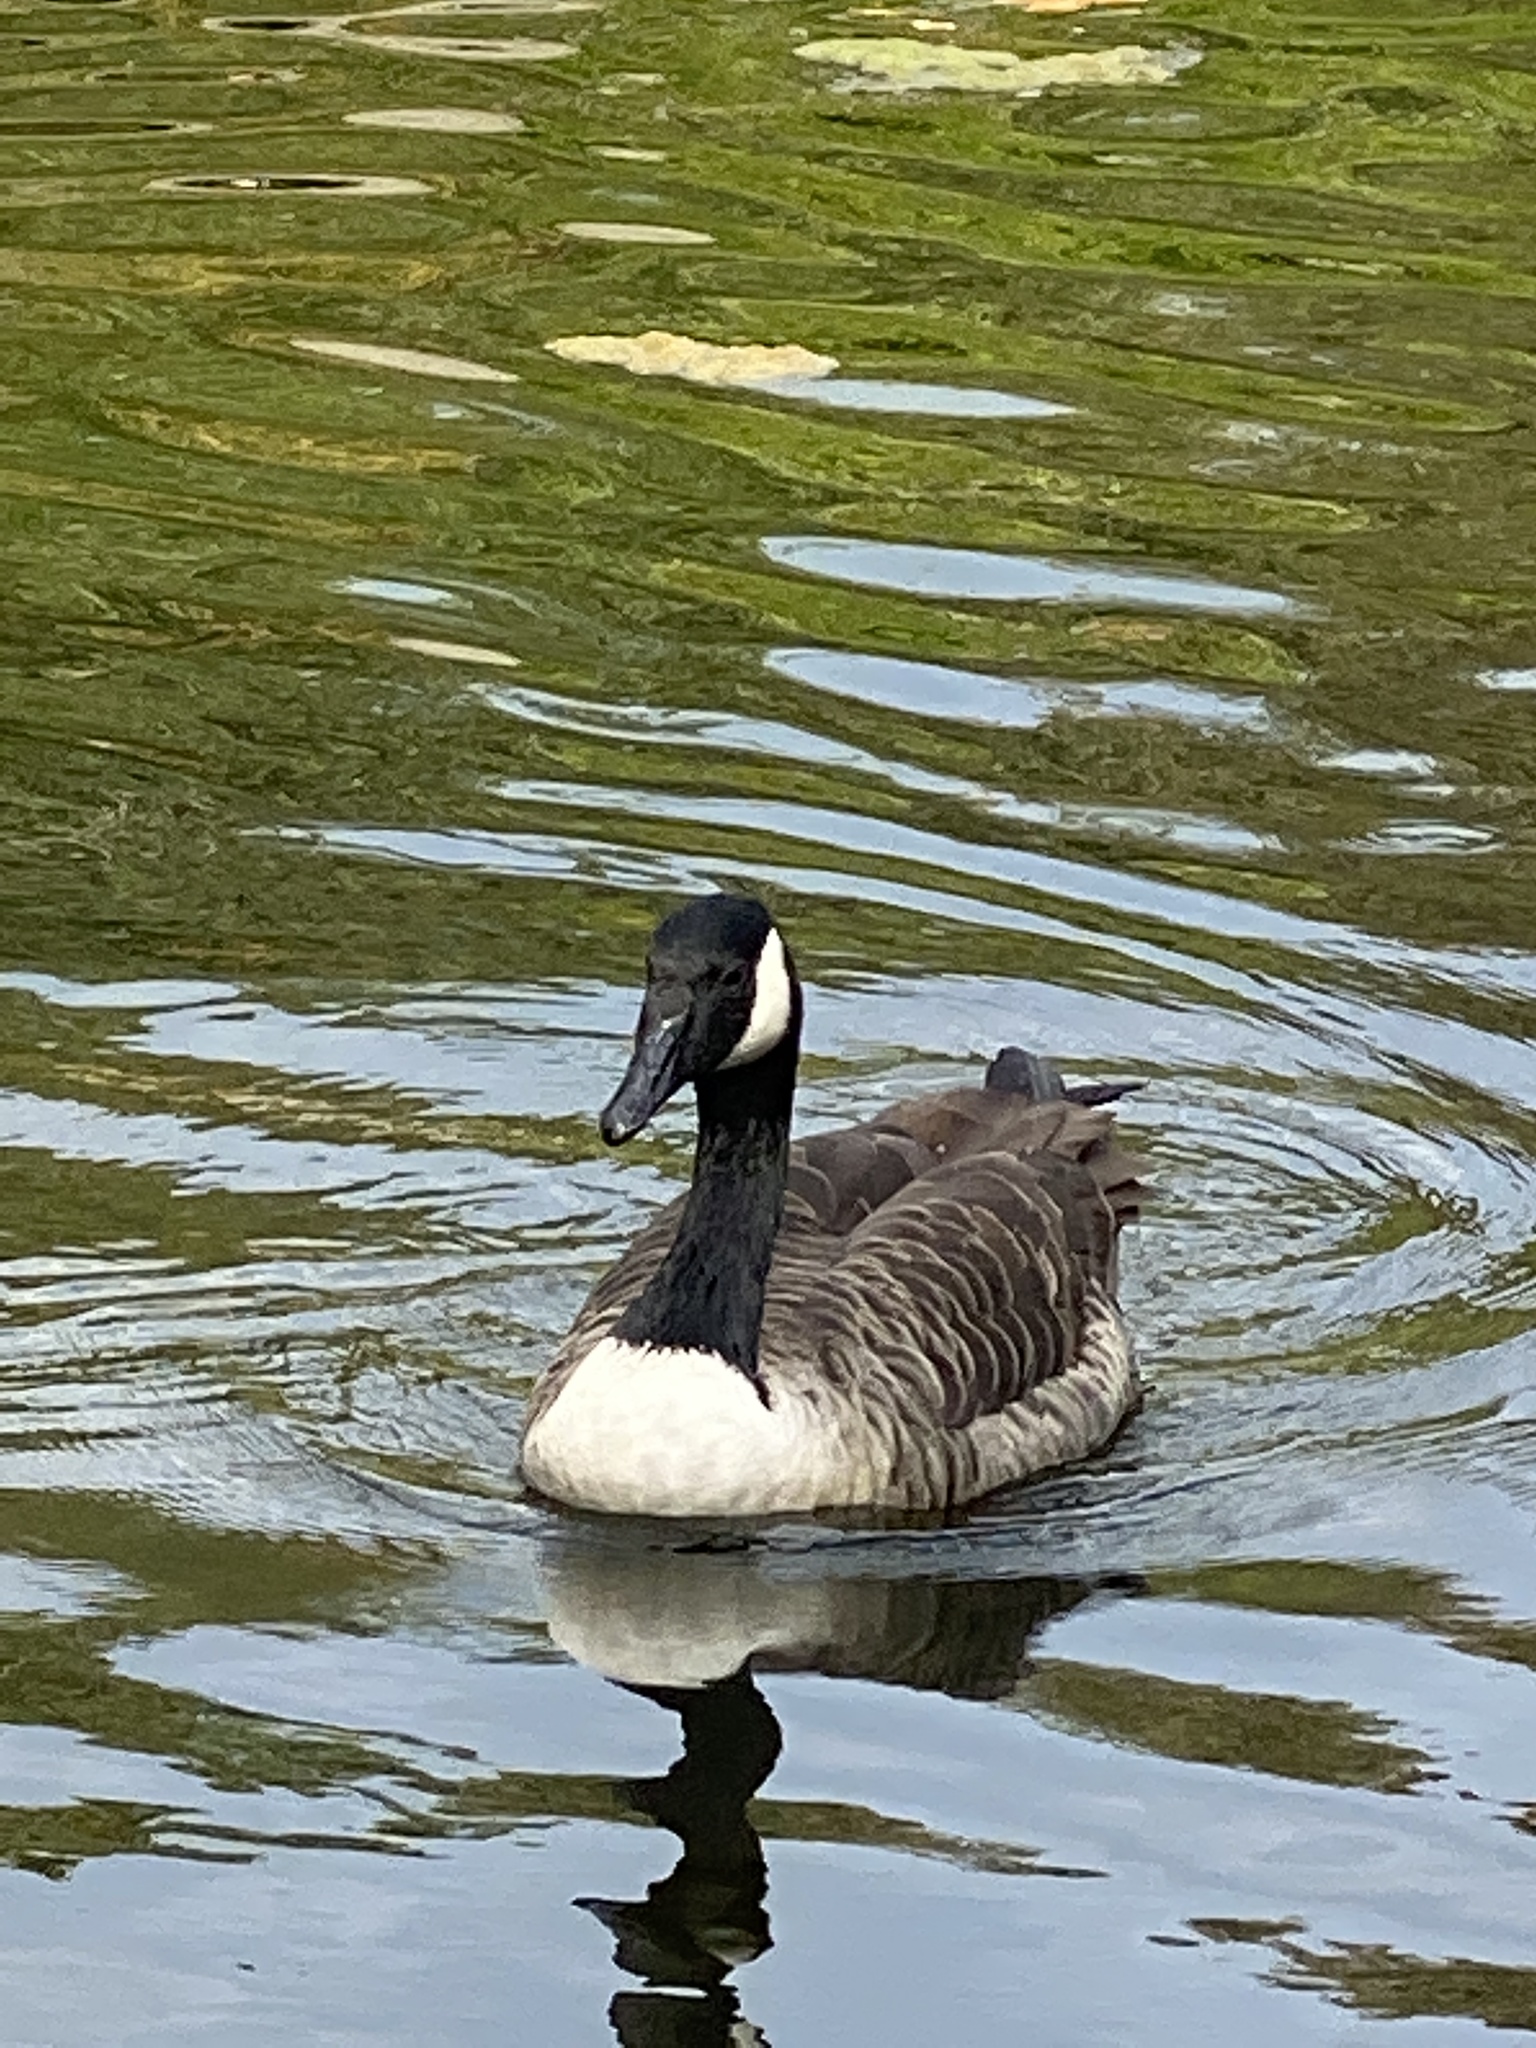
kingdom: Animalia
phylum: Chordata
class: Aves
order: Anseriformes
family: Anatidae
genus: Branta
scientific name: Branta canadensis
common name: Canada goose
